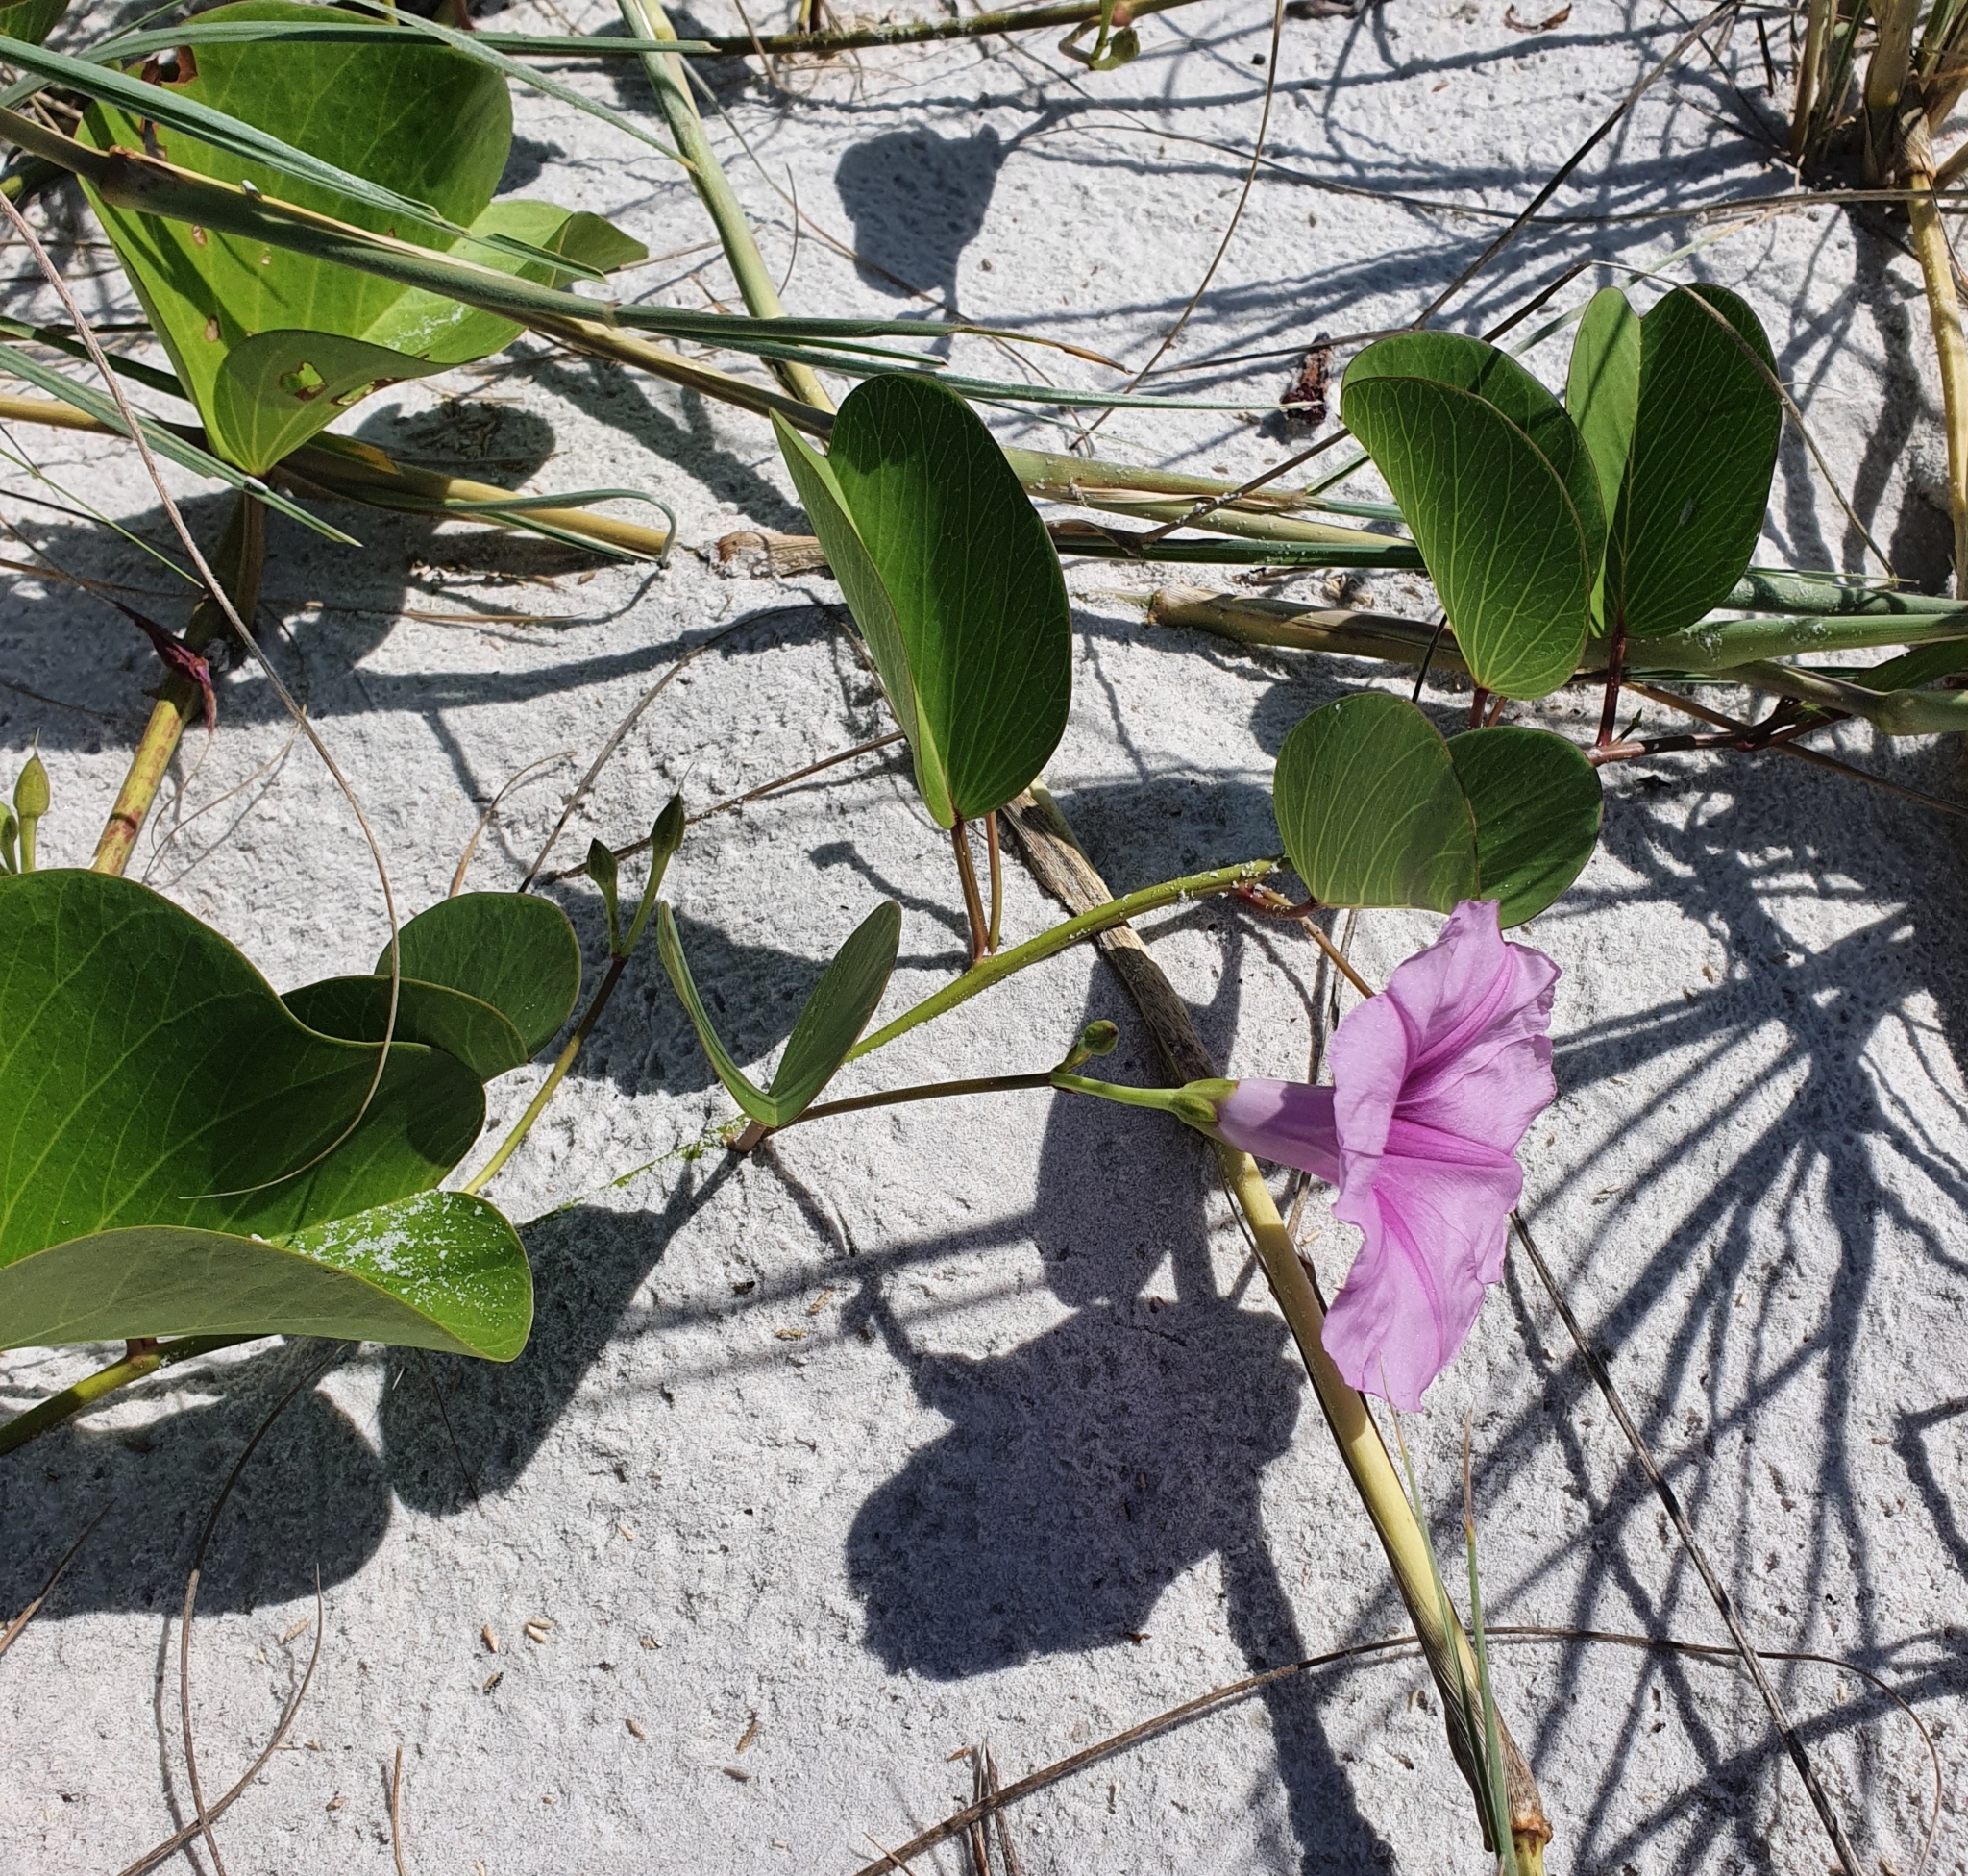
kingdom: Plantae
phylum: Tracheophyta
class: Magnoliopsida
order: Solanales
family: Convolvulaceae
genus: Ipomoea
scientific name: Ipomoea pes-caprae
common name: Beach morning glory
